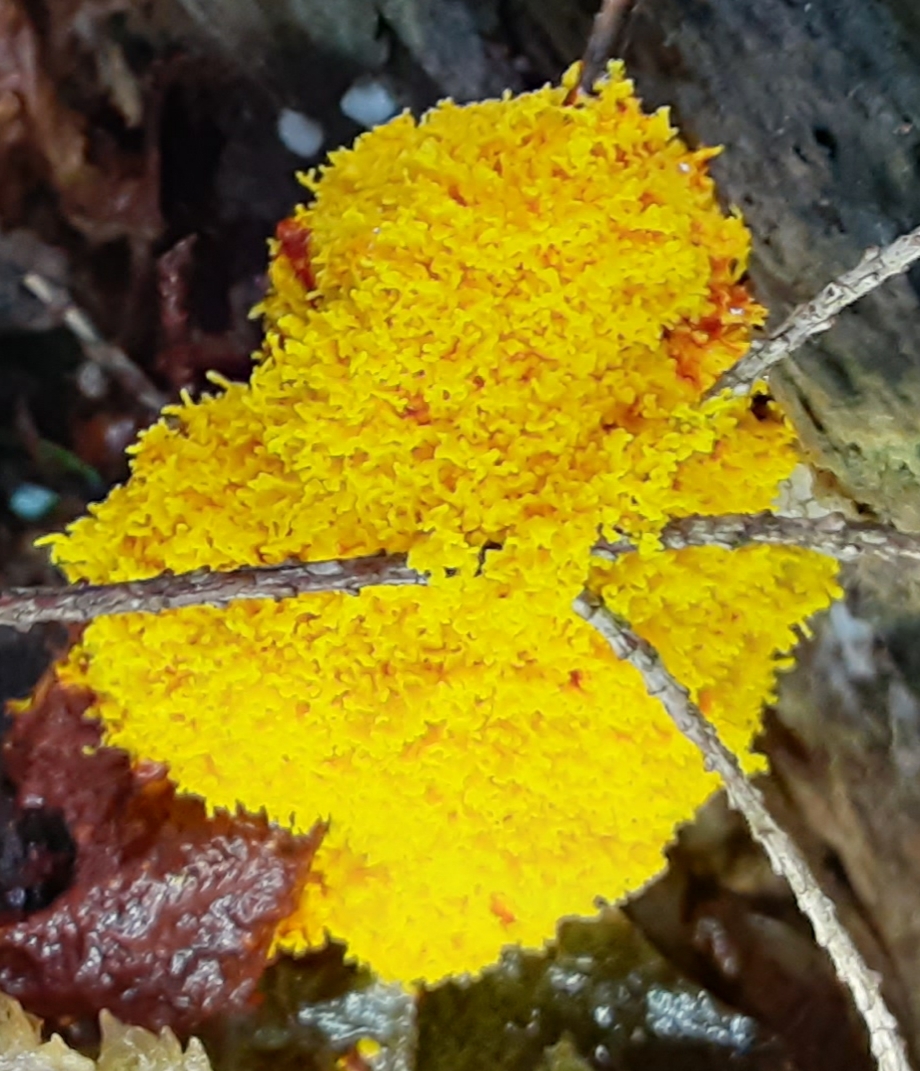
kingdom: Protozoa
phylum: Mycetozoa
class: Myxomycetes
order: Physarales
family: Physaraceae
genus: Fuligo
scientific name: Fuligo septica
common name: Dog vomit slime mold
